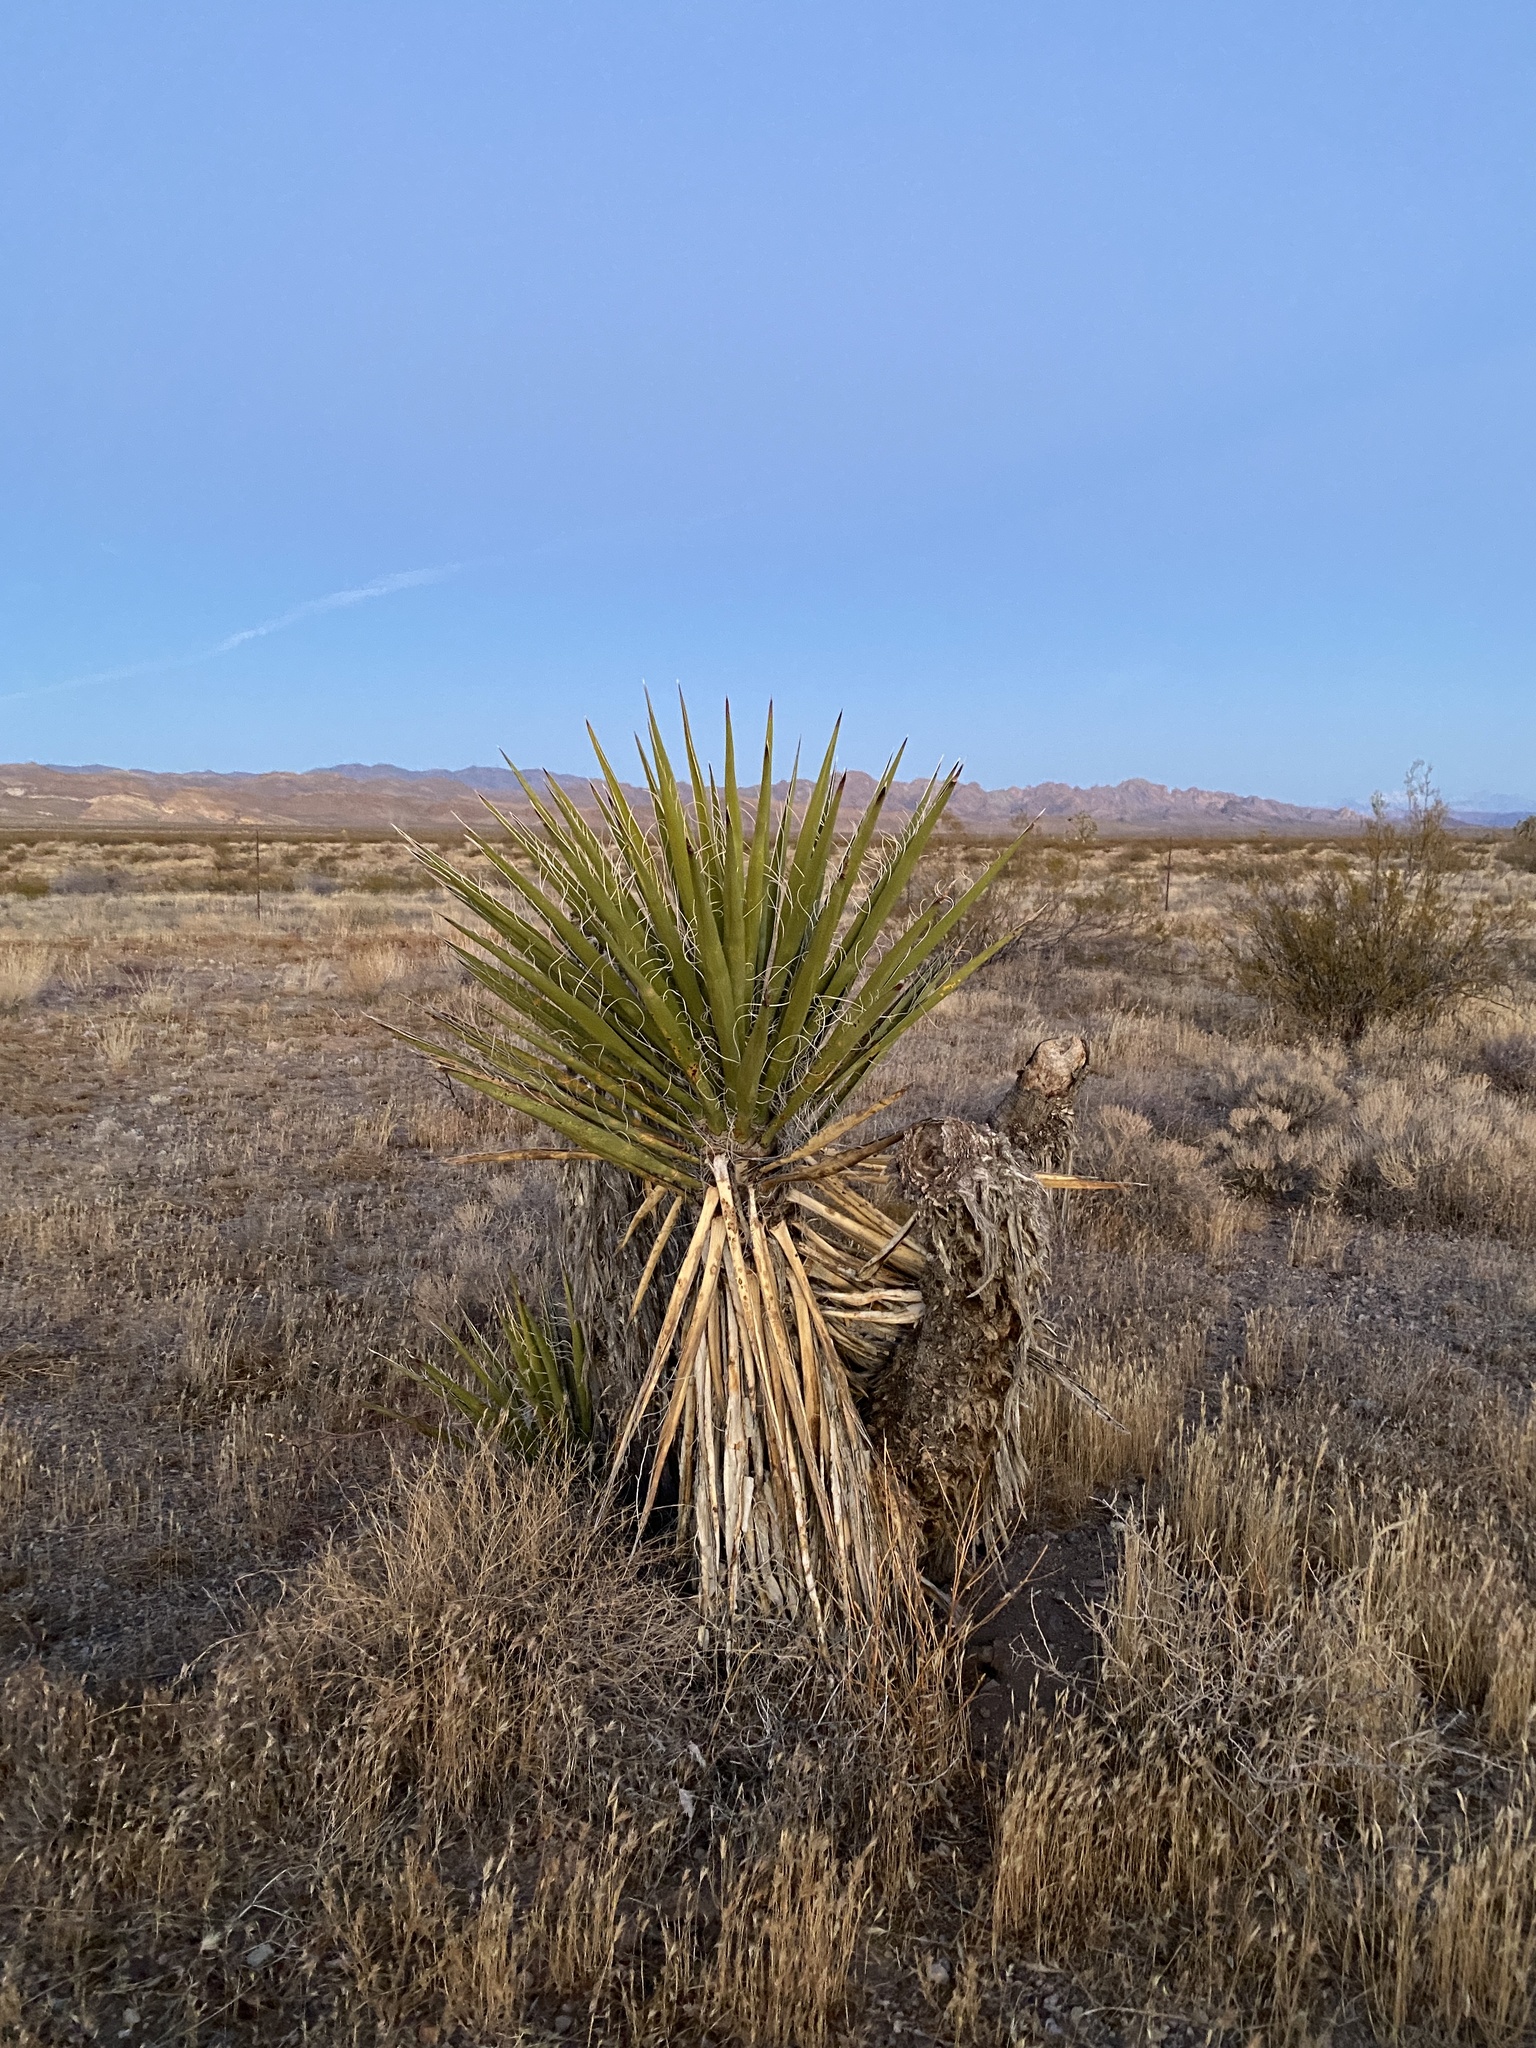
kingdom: Plantae
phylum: Tracheophyta
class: Liliopsida
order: Asparagales
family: Asparagaceae
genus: Yucca
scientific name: Yucca schidigera
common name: Mojave yucca
